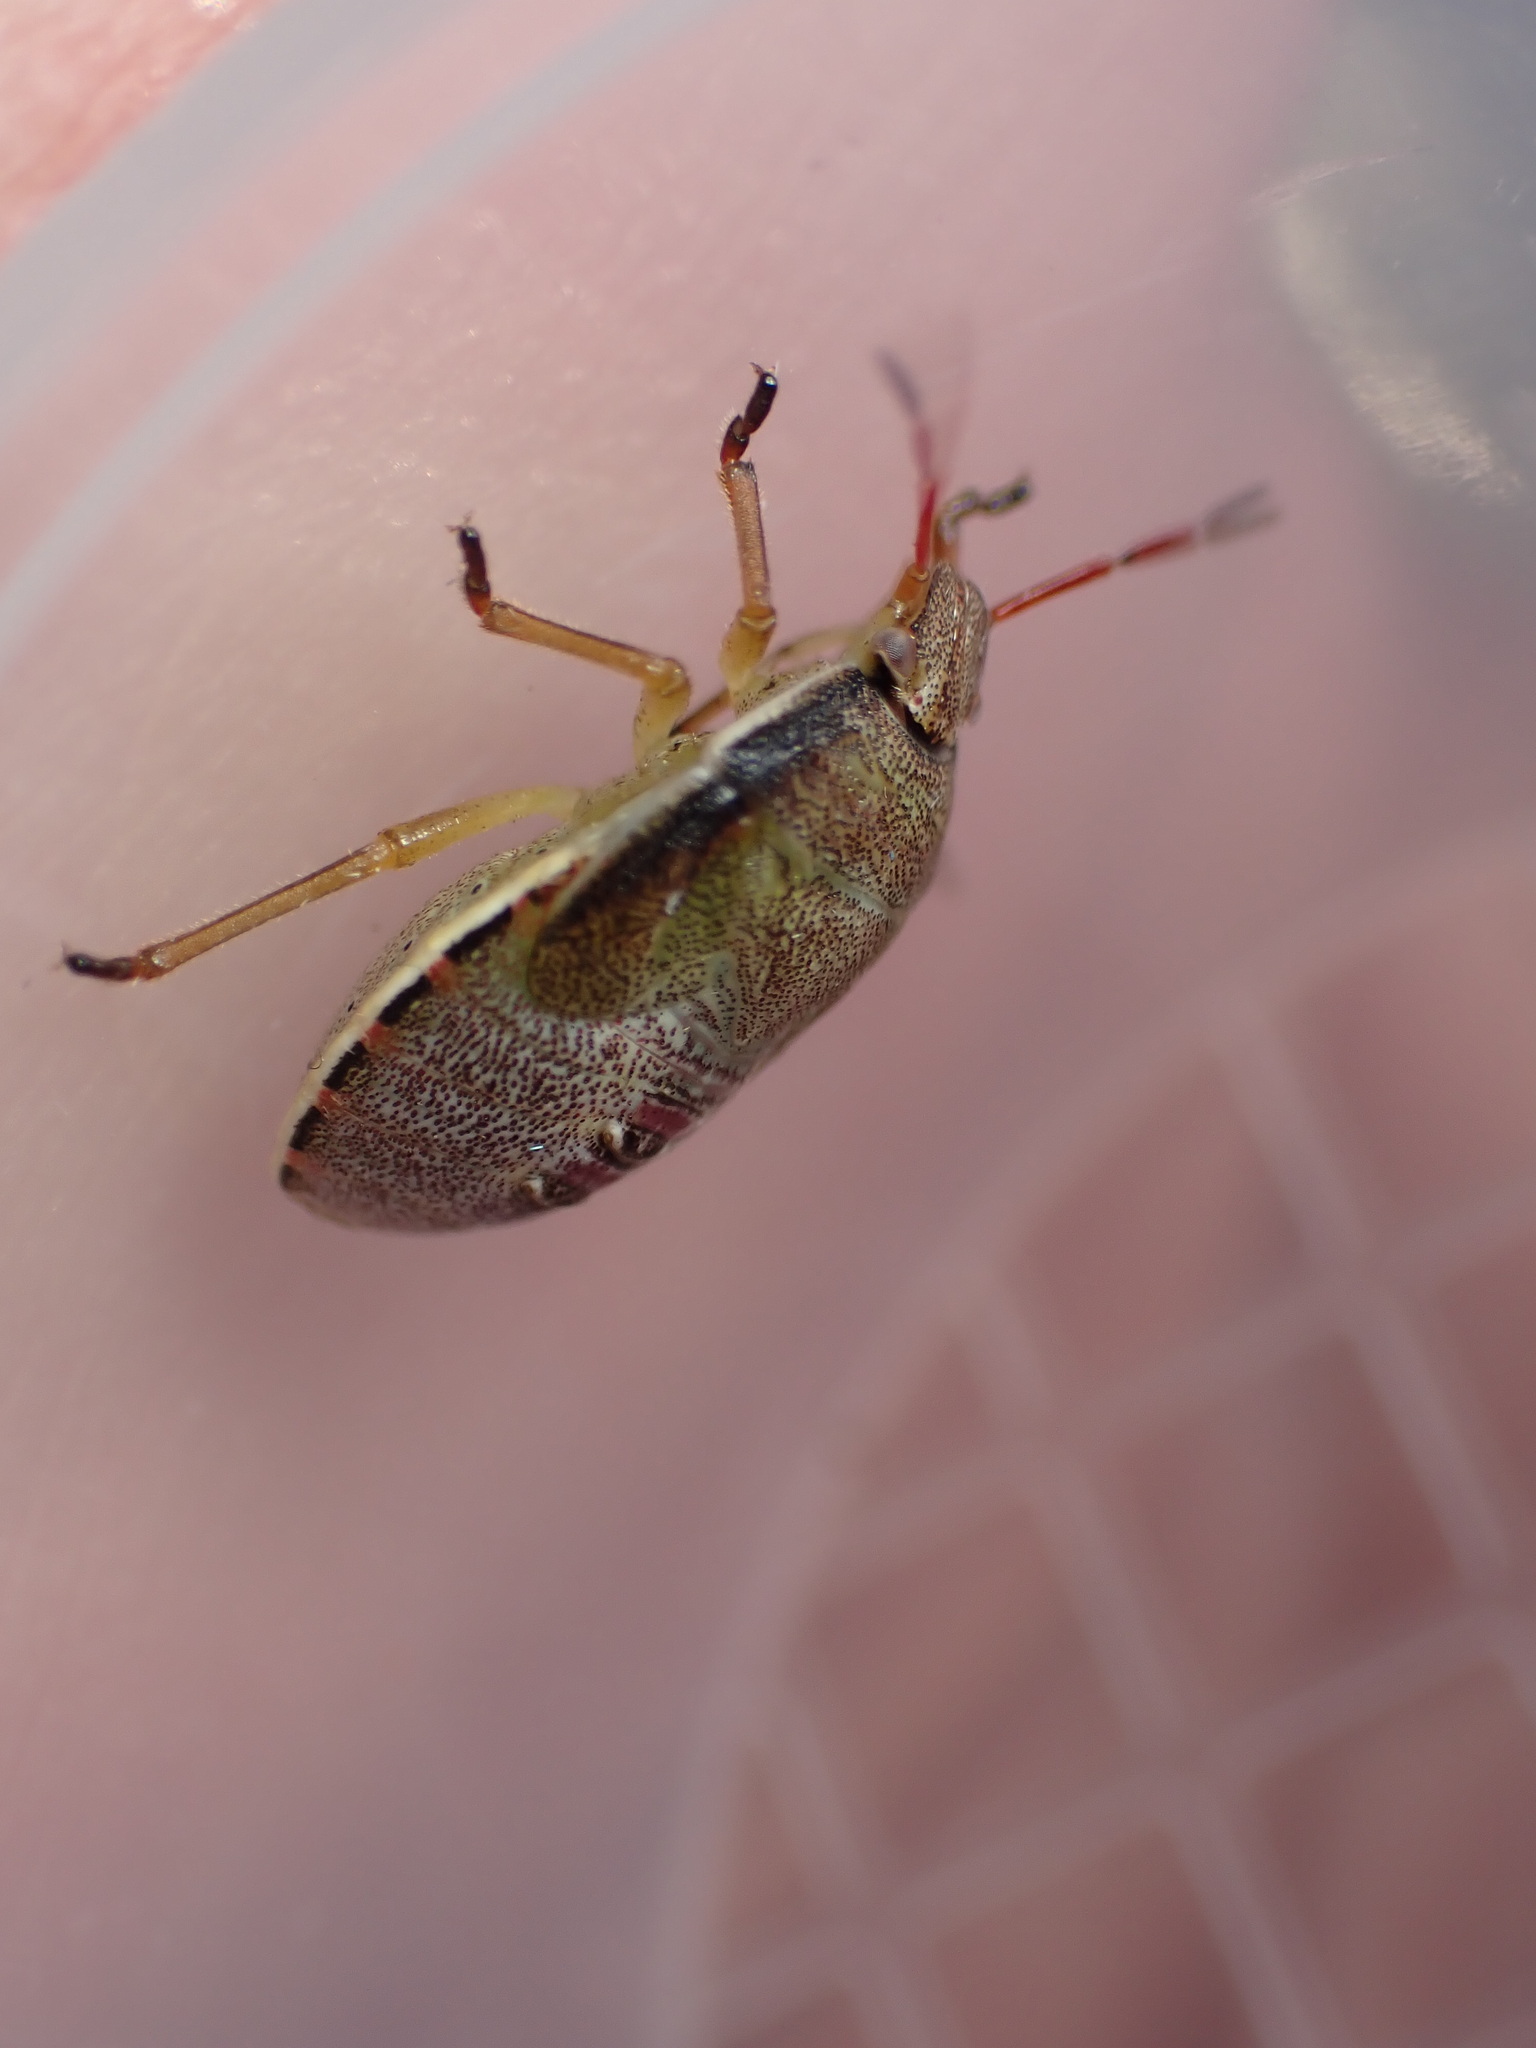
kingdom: Animalia
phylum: Arthropoda
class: Insecta
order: Hemiptera
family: Pentatomidae
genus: Piezodorus
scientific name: Piezodorus lituratus
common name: Stink bug
